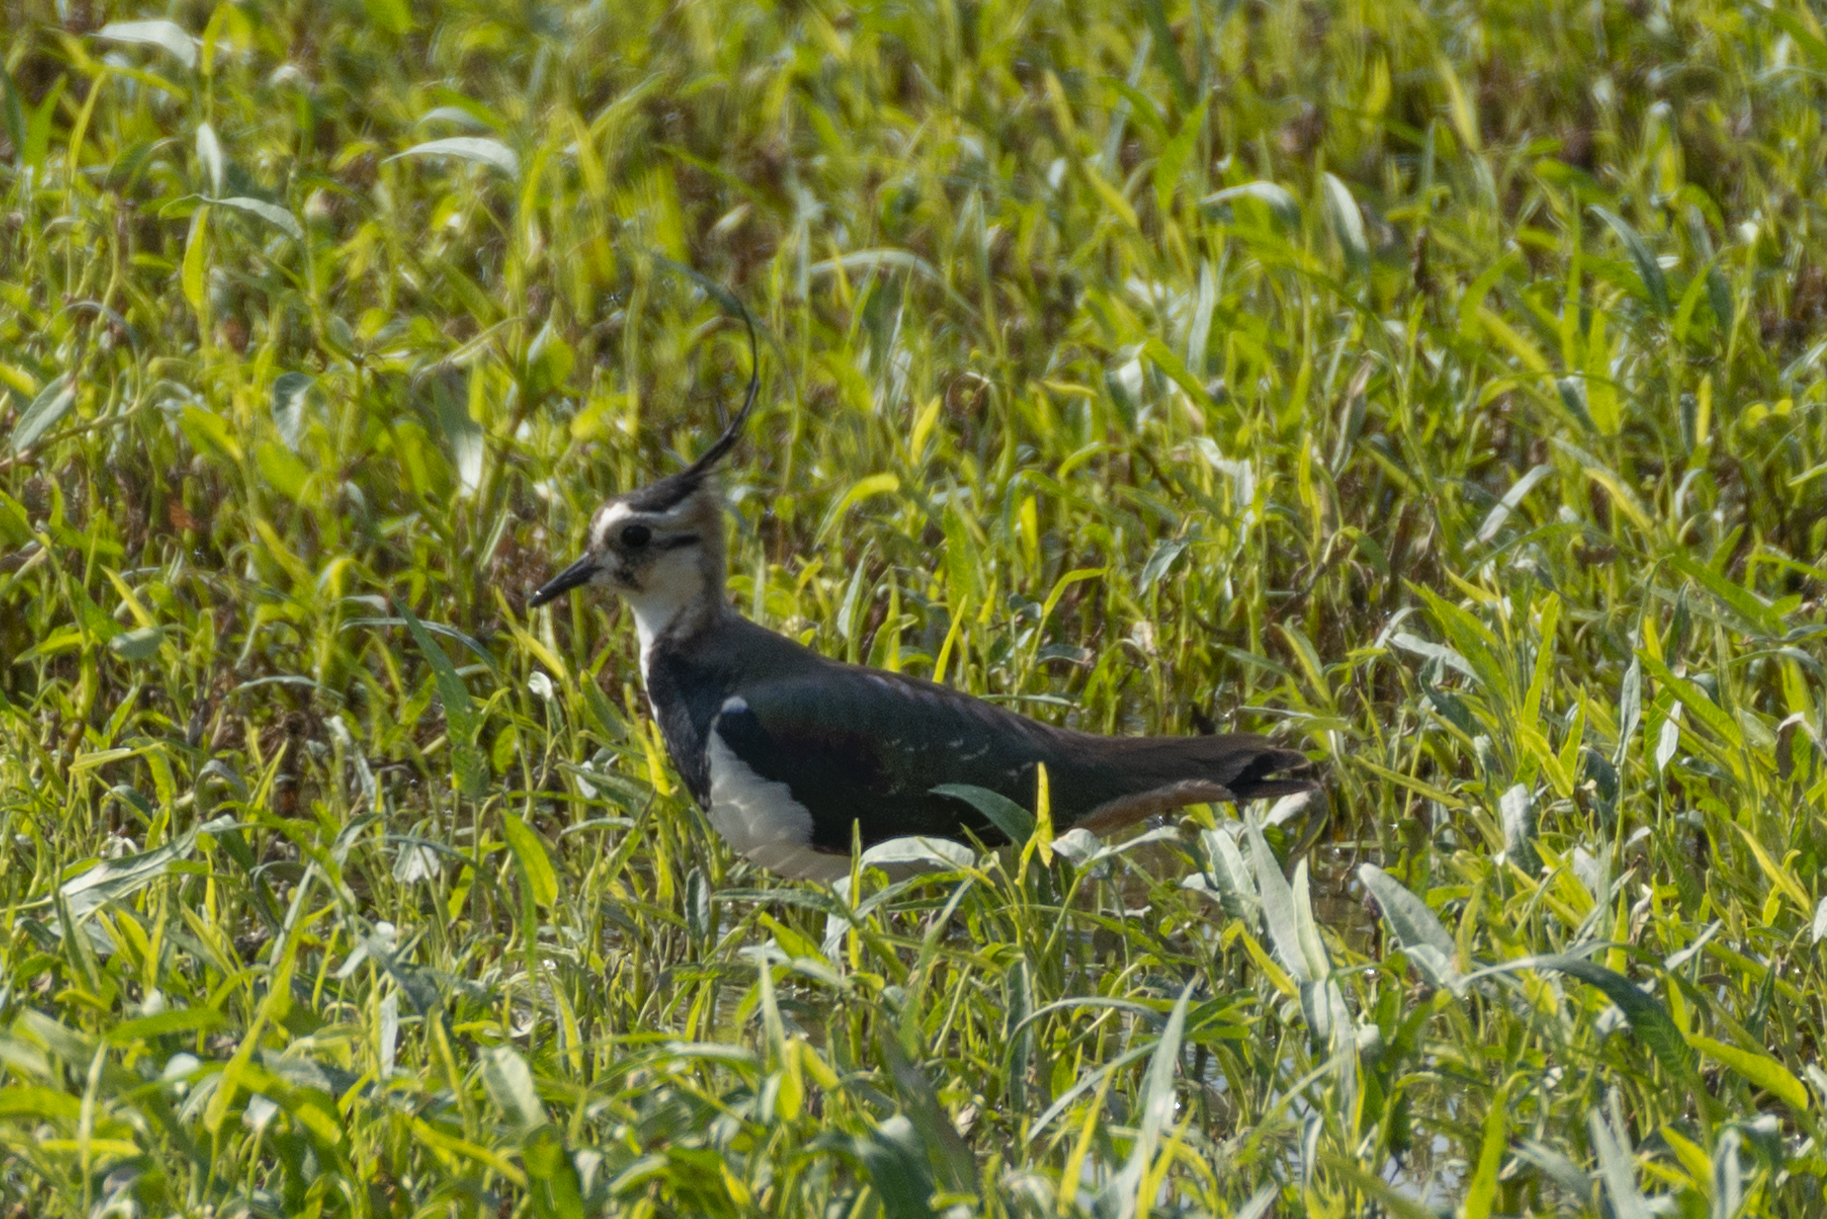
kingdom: Animalia
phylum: Chordata
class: Aves
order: Charadriiformes
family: Charadriidae
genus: Vanellus
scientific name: Vanellus vanellus
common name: Northern lapwing
